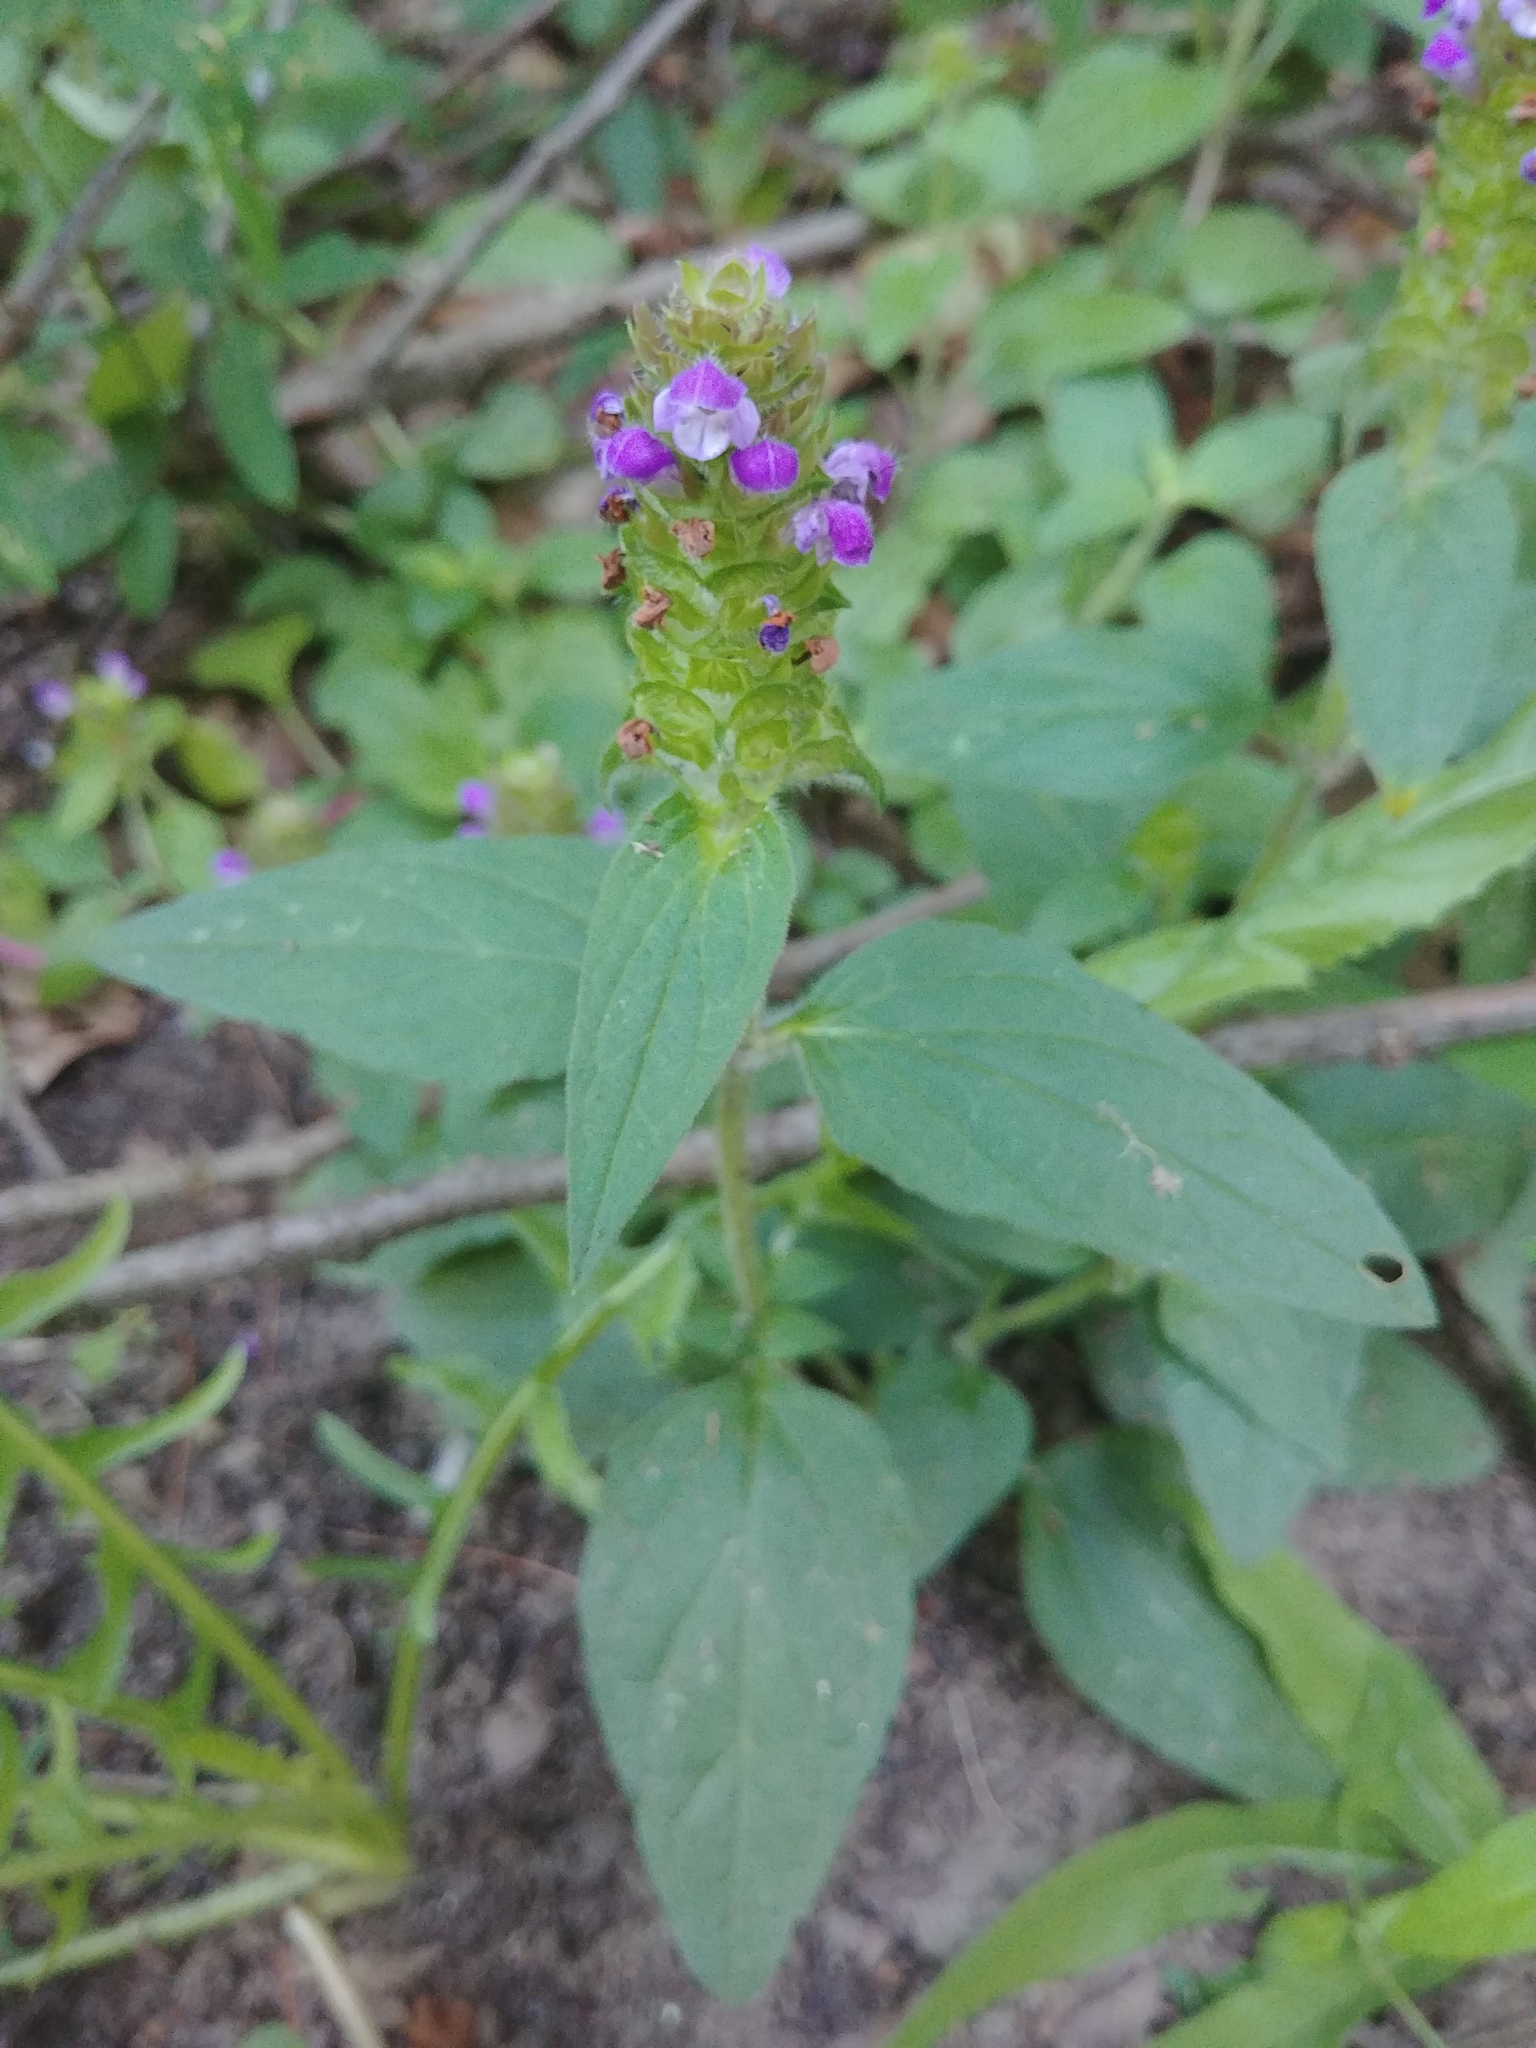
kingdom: Plantae
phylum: Tracheophyta
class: Magnoliopsida
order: Lamiales
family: Lamiaceae
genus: Prunella
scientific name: Prunella vulgaris
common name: Heal-all
